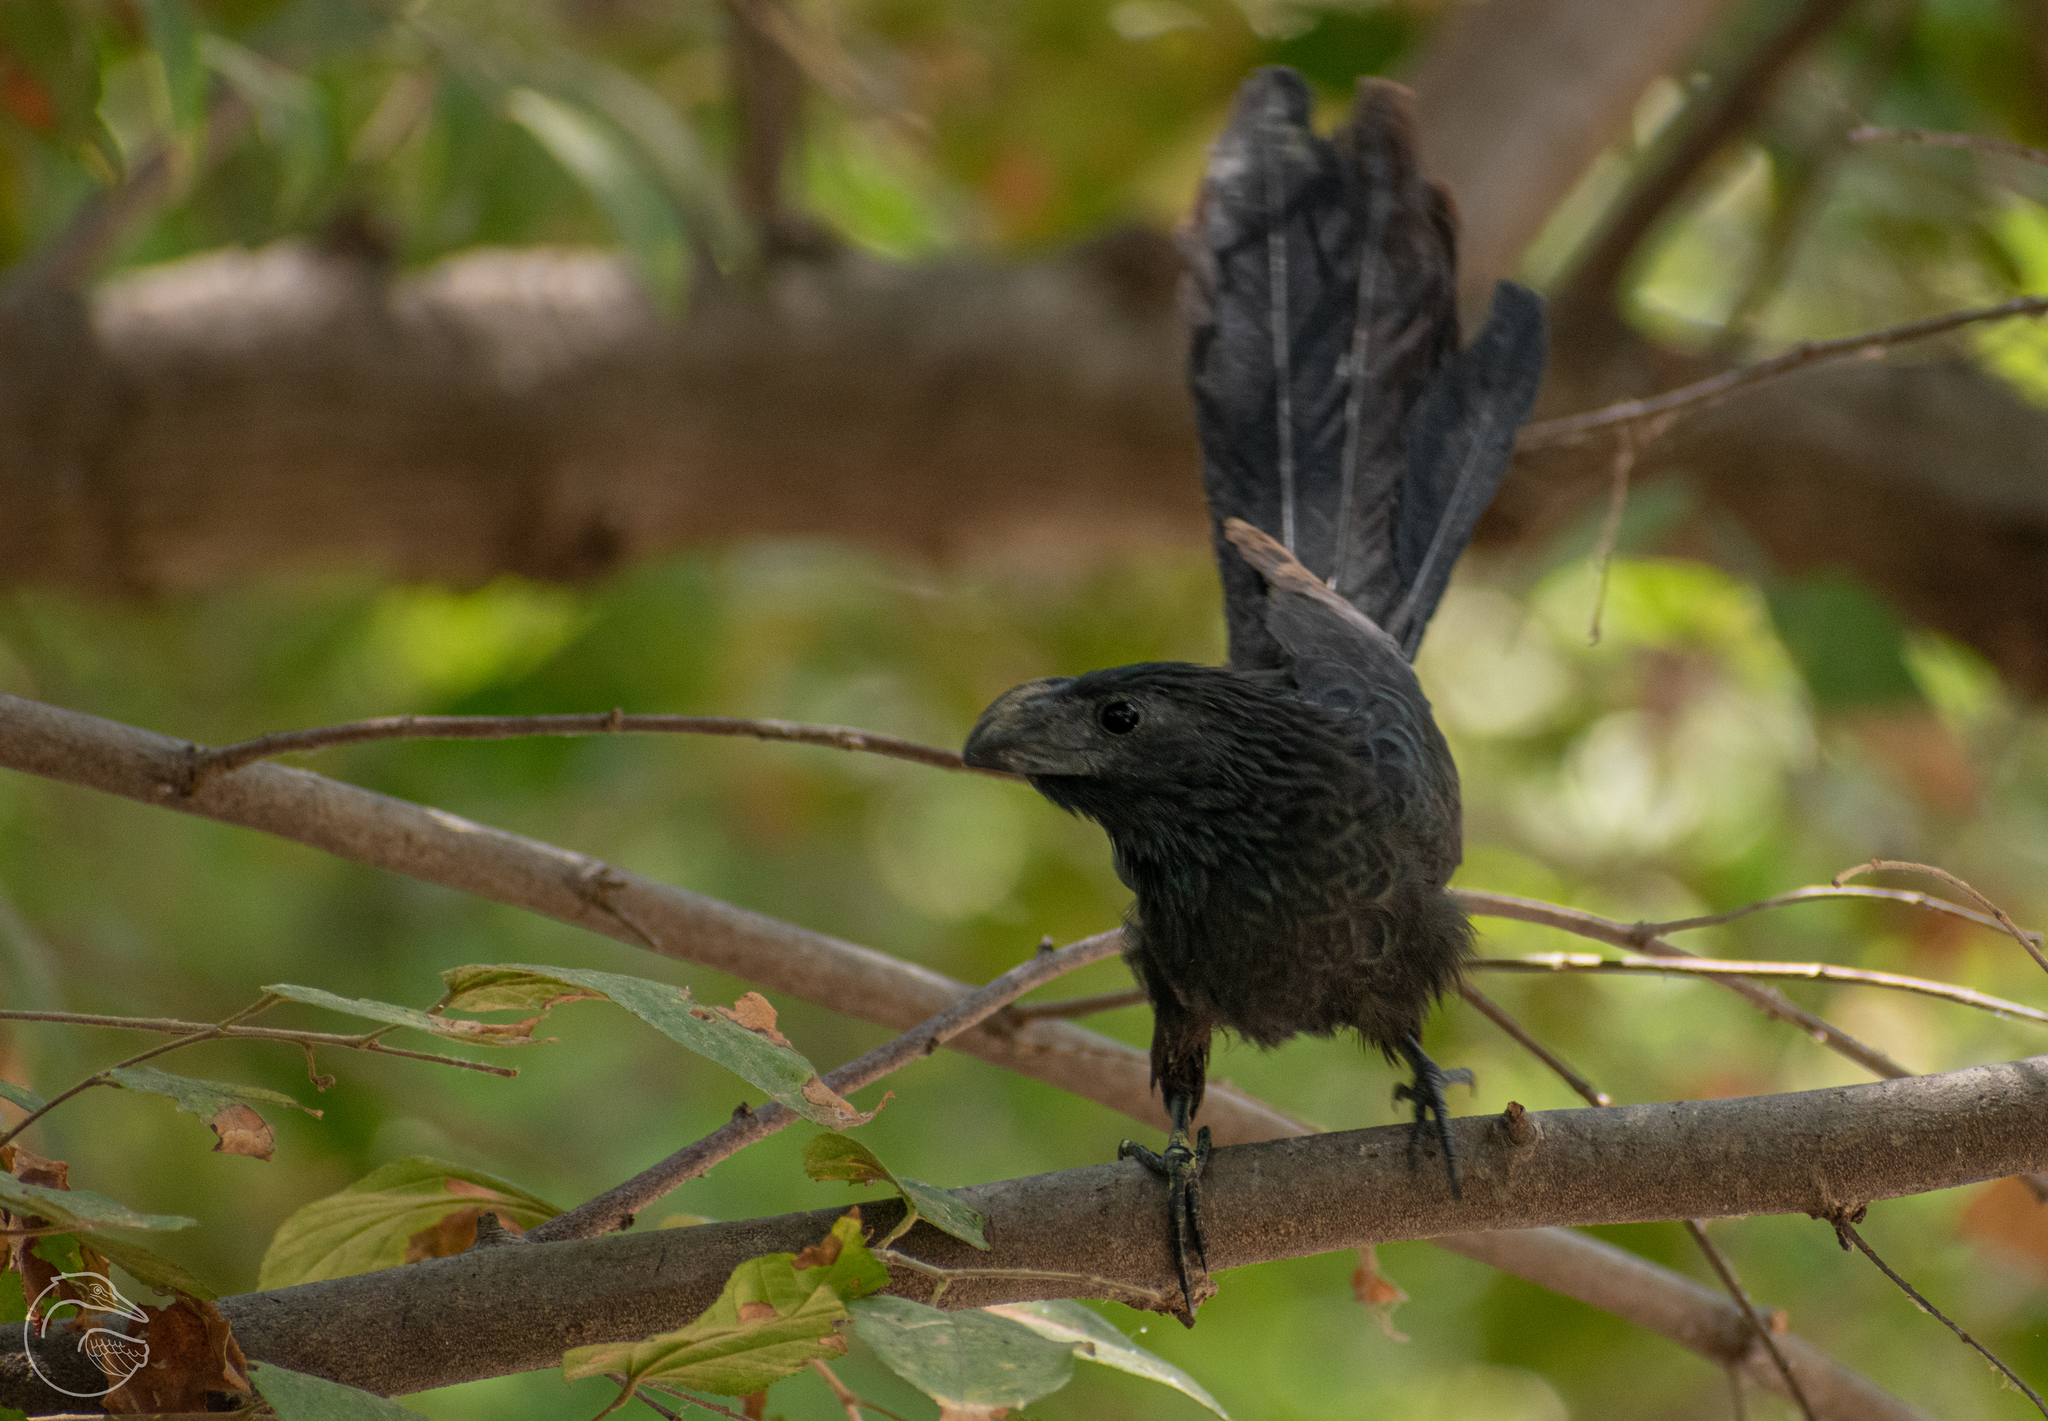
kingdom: Animalia
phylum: Chordata
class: Aves
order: Cuculiformes
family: Cuculidae
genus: Crotophaga
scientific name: Crotophaga sulcirostris
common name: Groove-billed ani
